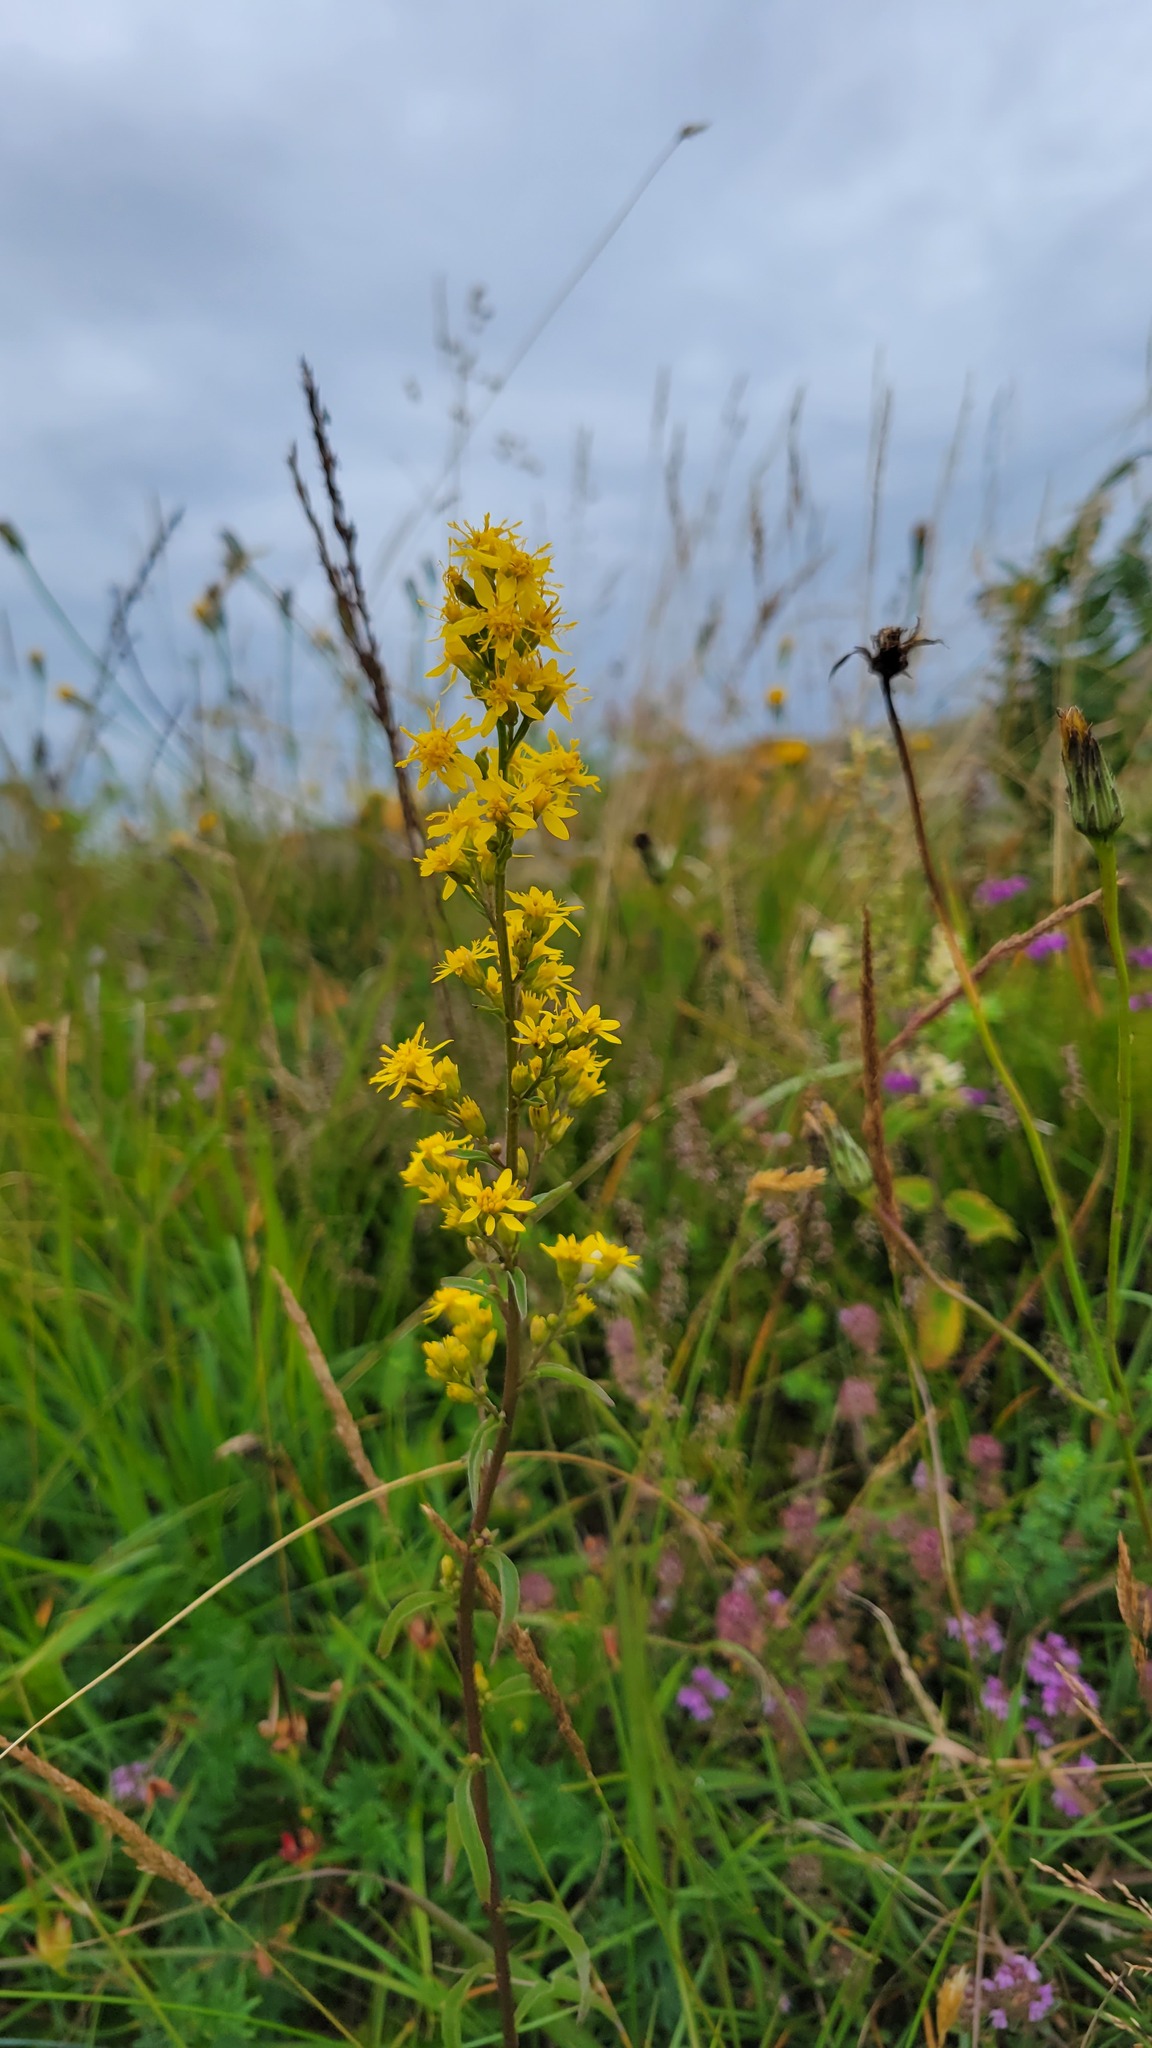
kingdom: Plantae
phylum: Tracheophyta
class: Magnoliopsida
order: Asterales
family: Asteraceae
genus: Solidago
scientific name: Solidago virgaurea
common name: Goldenrod
